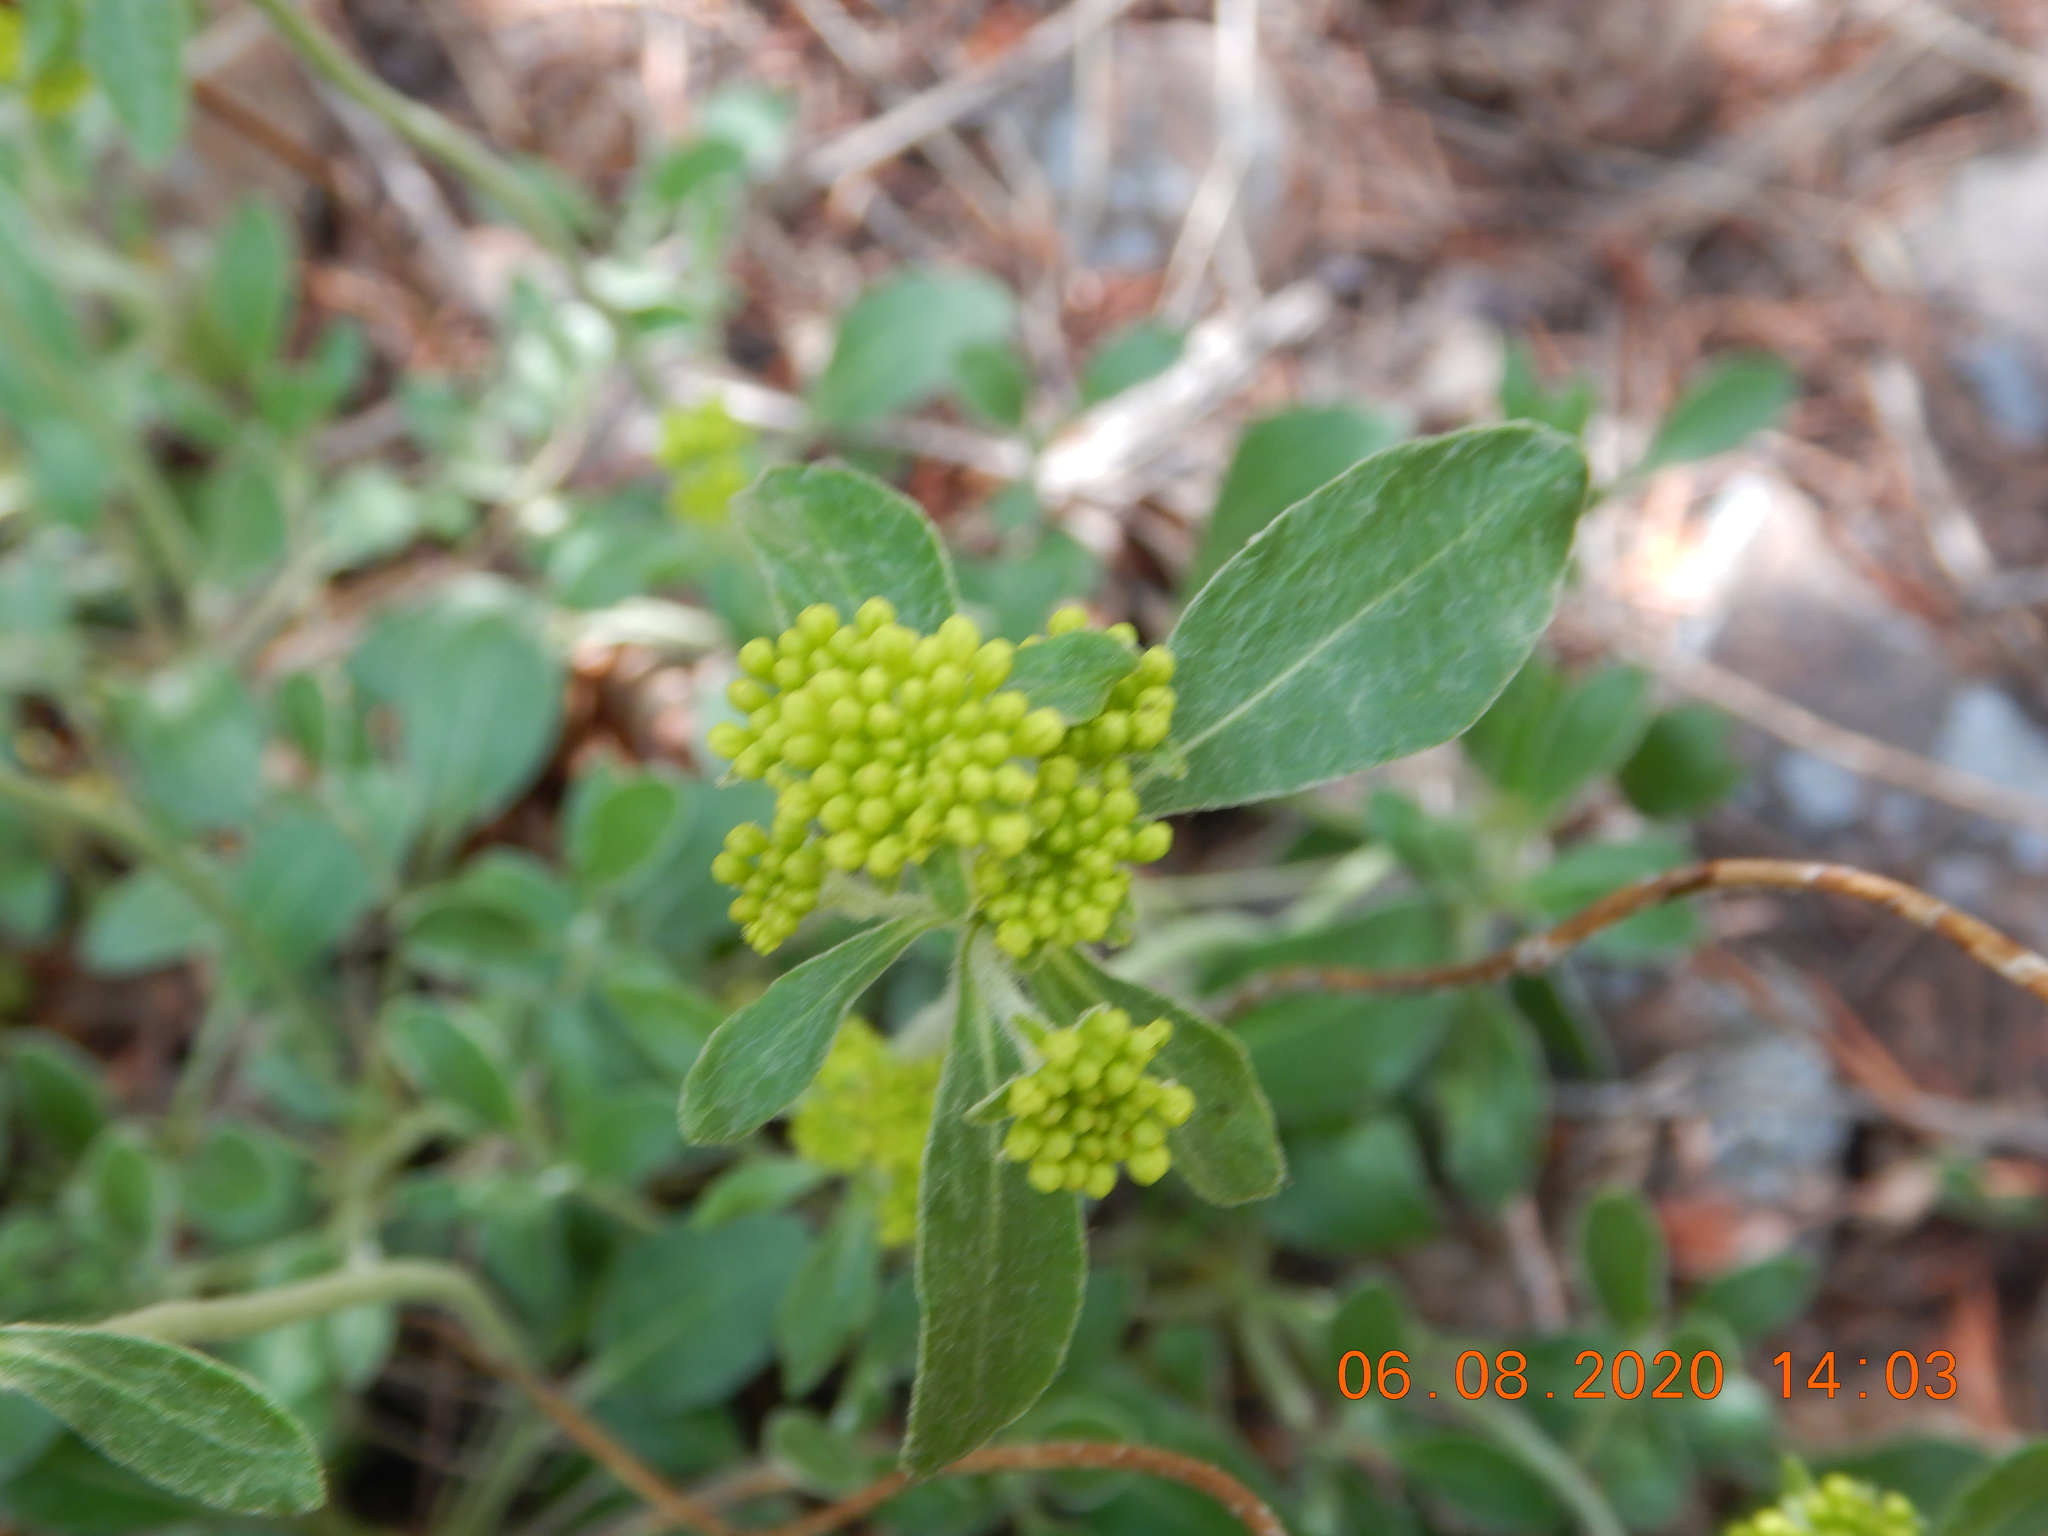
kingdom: Plantae
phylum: Tracheophyta
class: Magnoliopsida
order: Caryophyllales
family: Polygonaceae
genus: Eriogonum
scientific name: Eriogonum umbellatum
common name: Sulfur-buckwheat
